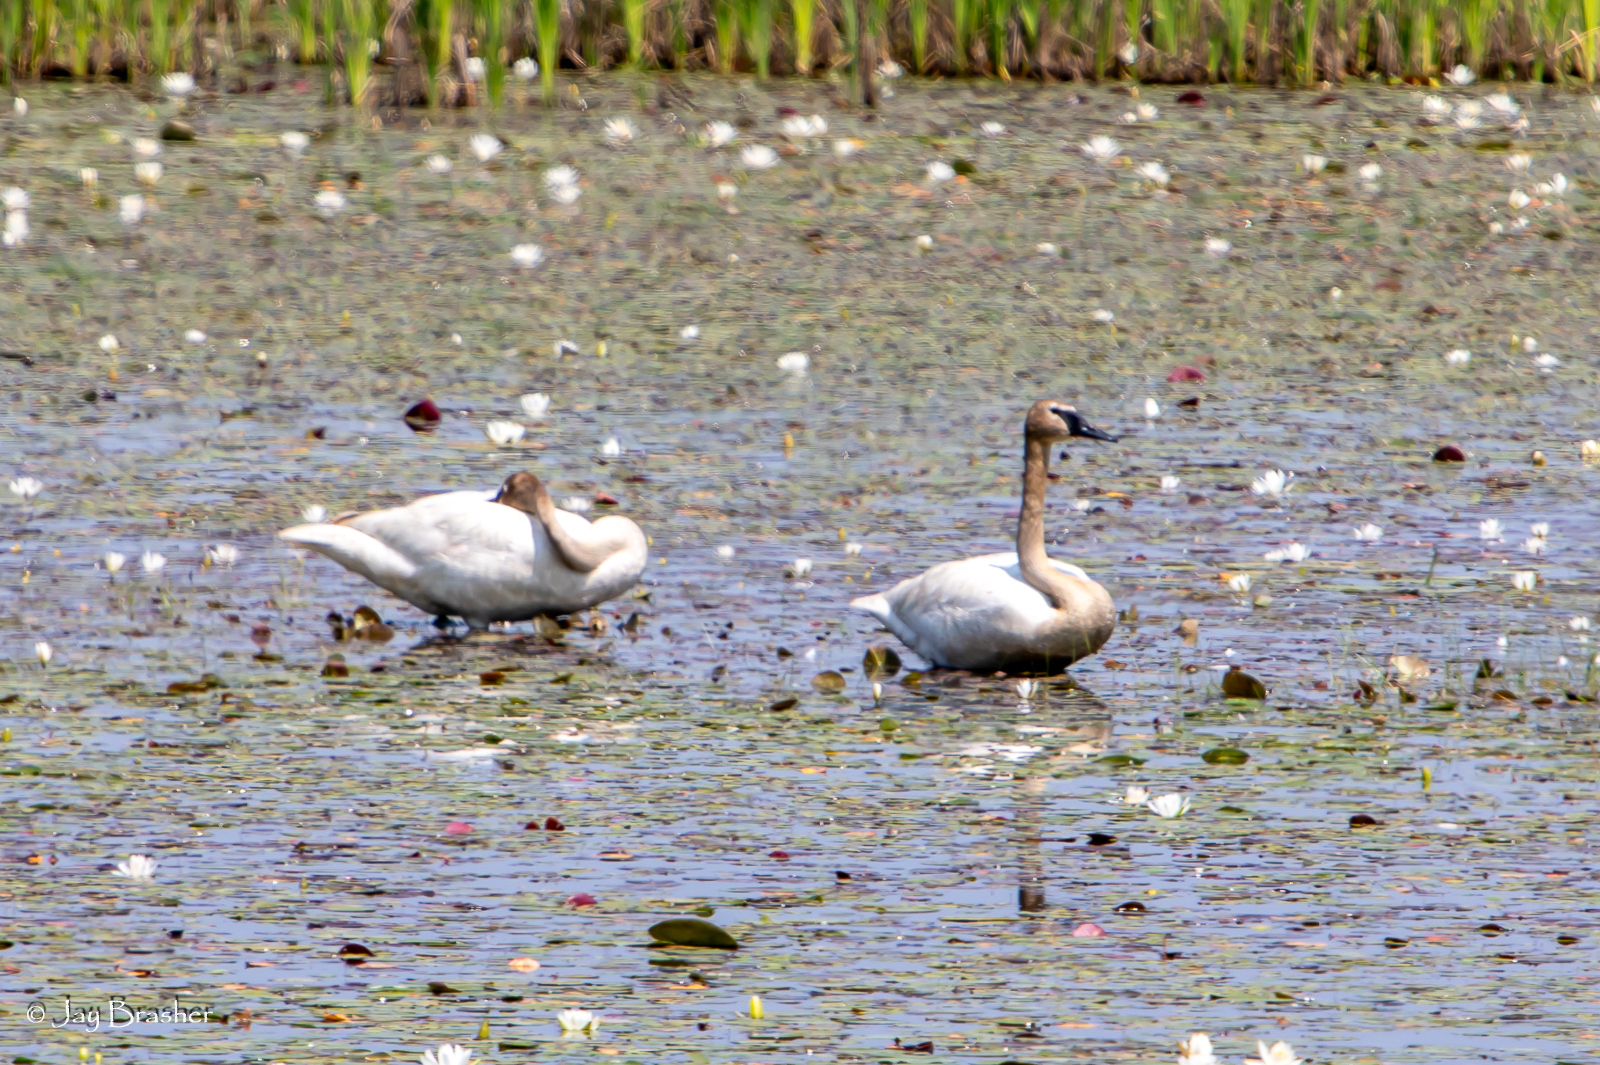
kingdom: Animalia
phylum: Chordata
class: Aves
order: Anseriformes
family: Anatidae
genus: Cygnus
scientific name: Cygnus buccinator
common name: Trumpeter swan
